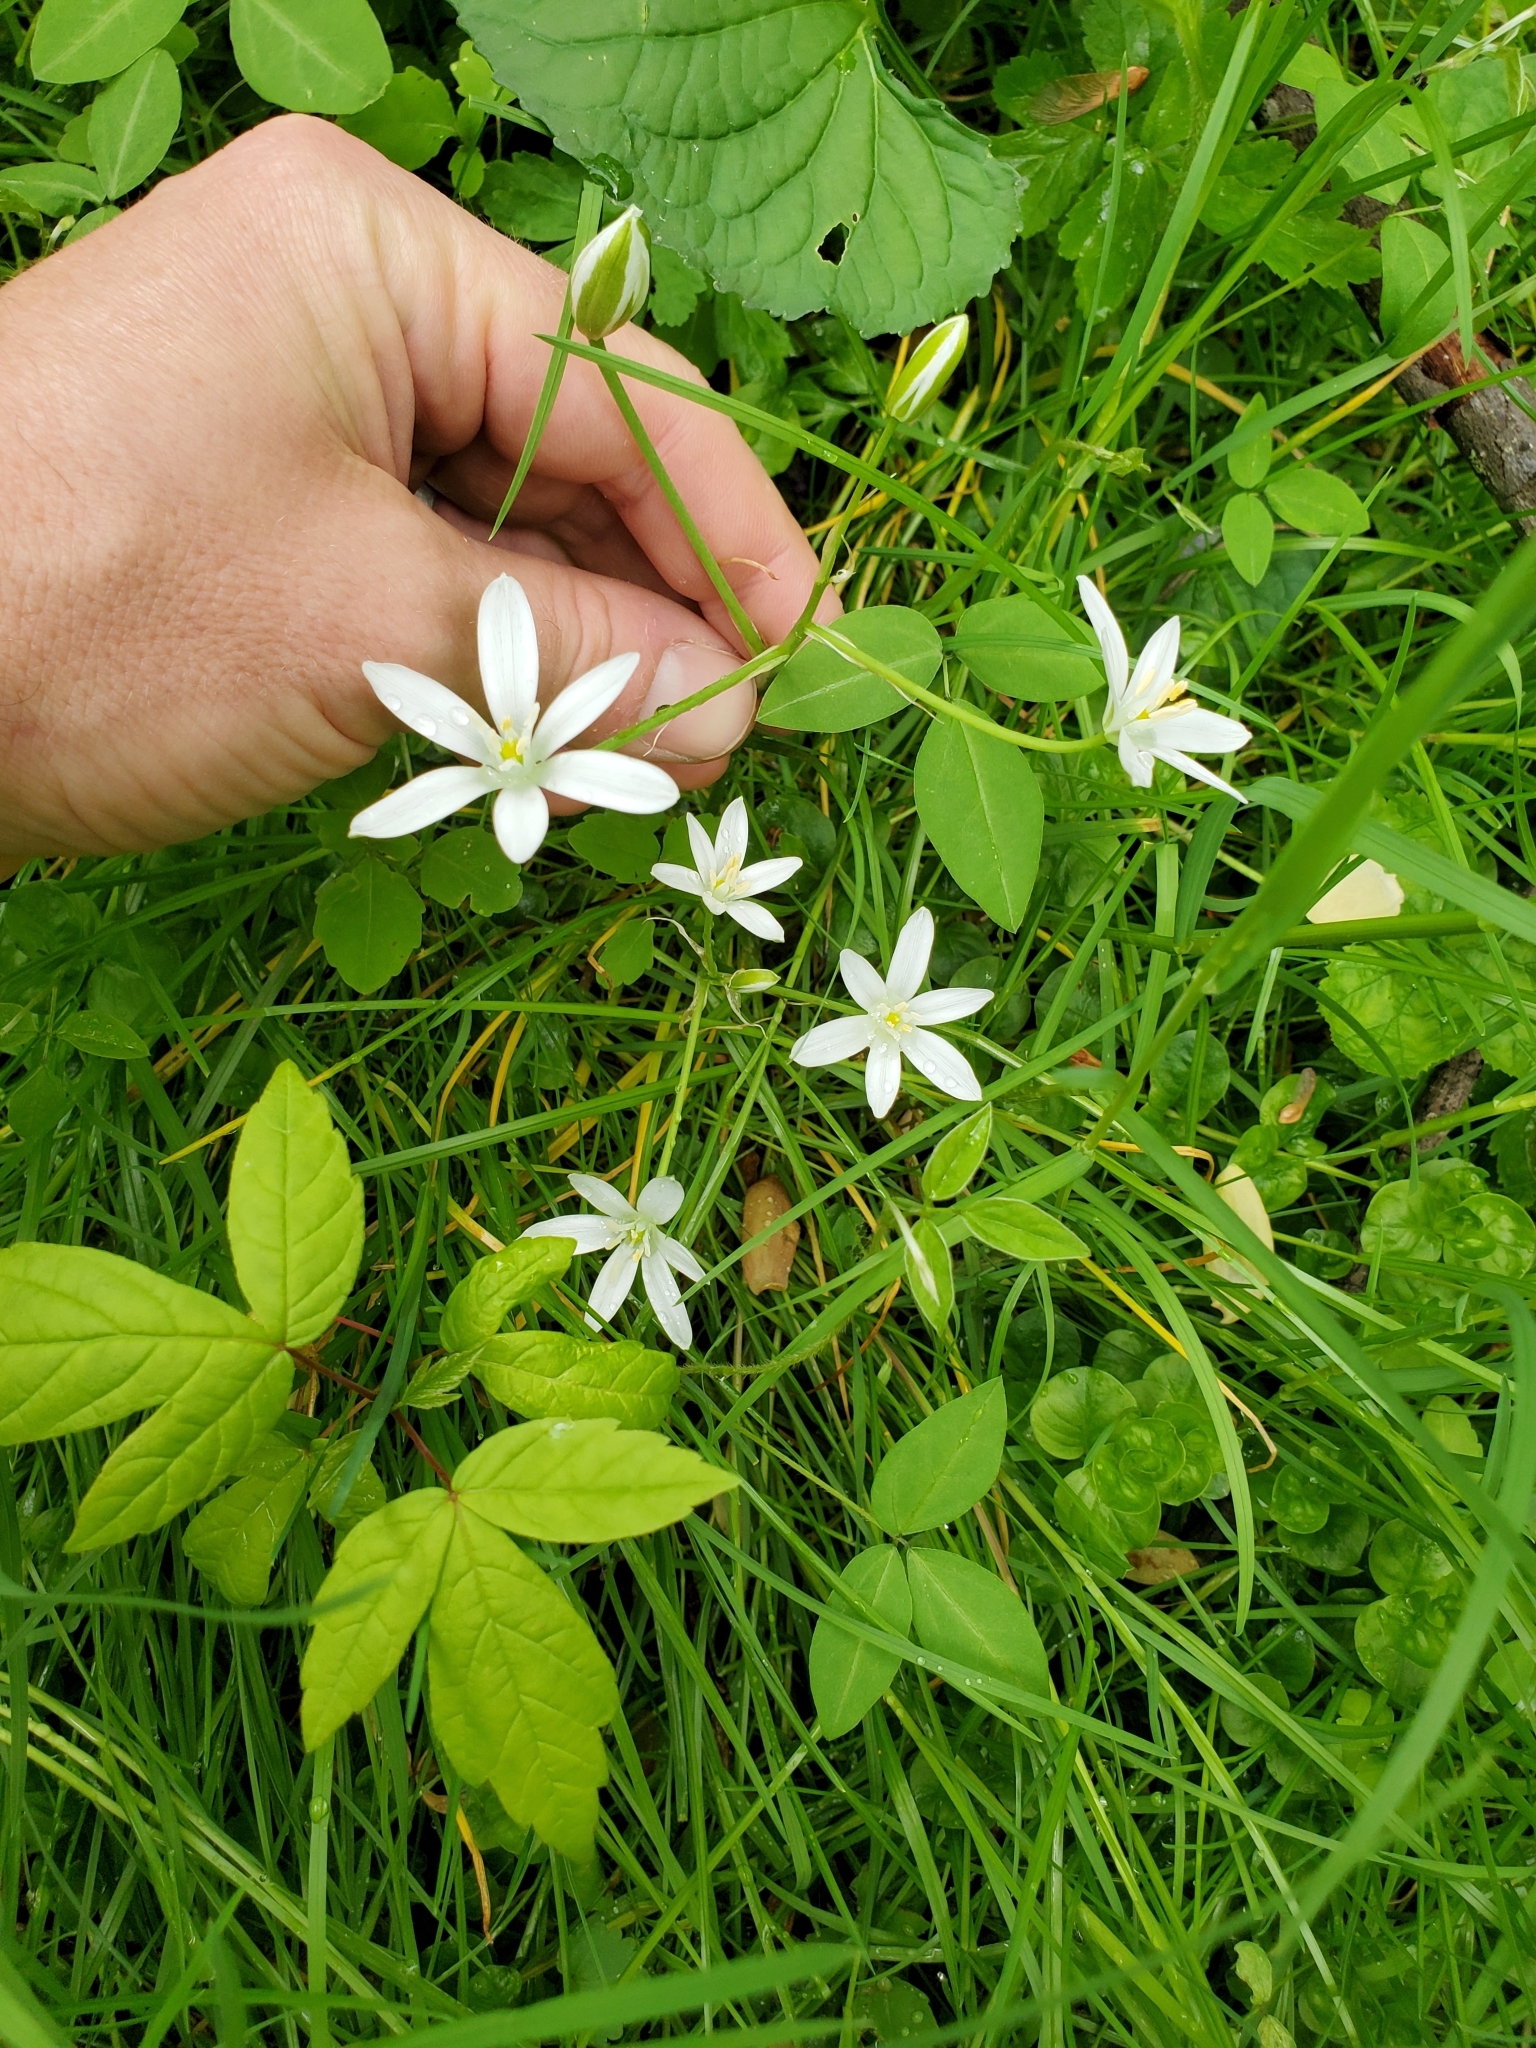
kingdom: Plantae
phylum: Tracheophyta
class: Liliopsida
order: Asparagales
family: Asparagaceae
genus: Ornithogalum
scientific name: Ornithogalum umbellatum
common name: Garden star-of-bethlehem
